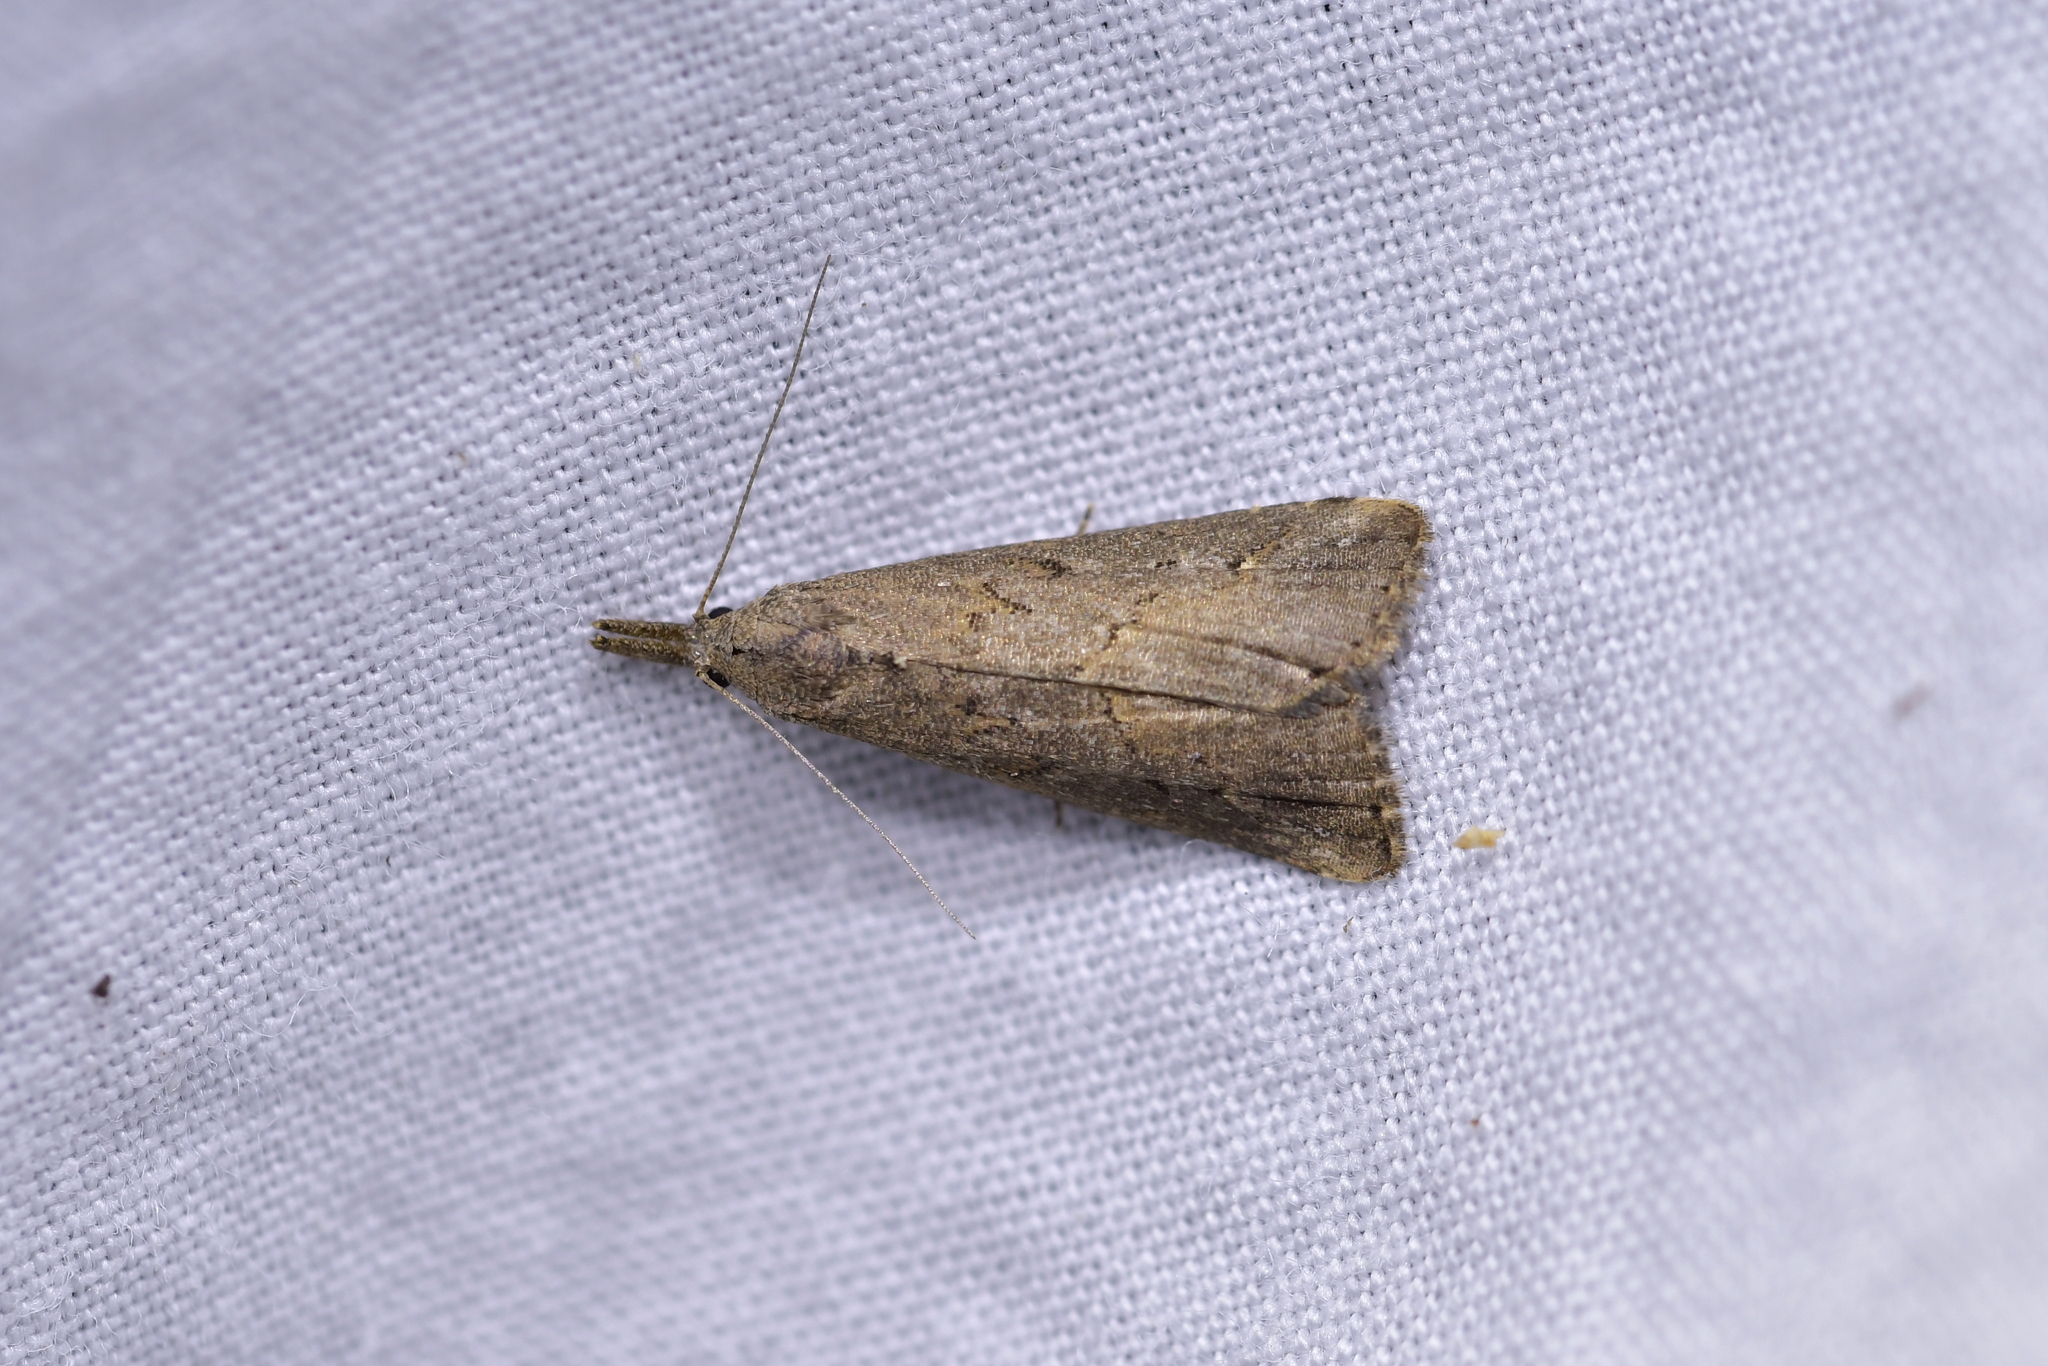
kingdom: Animalia
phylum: Arthropoda
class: Insecta
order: Lepidoptera
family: Erebidae
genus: Schrankia
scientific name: Schrankia costaestrigalis
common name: Pinion-streaked snout
